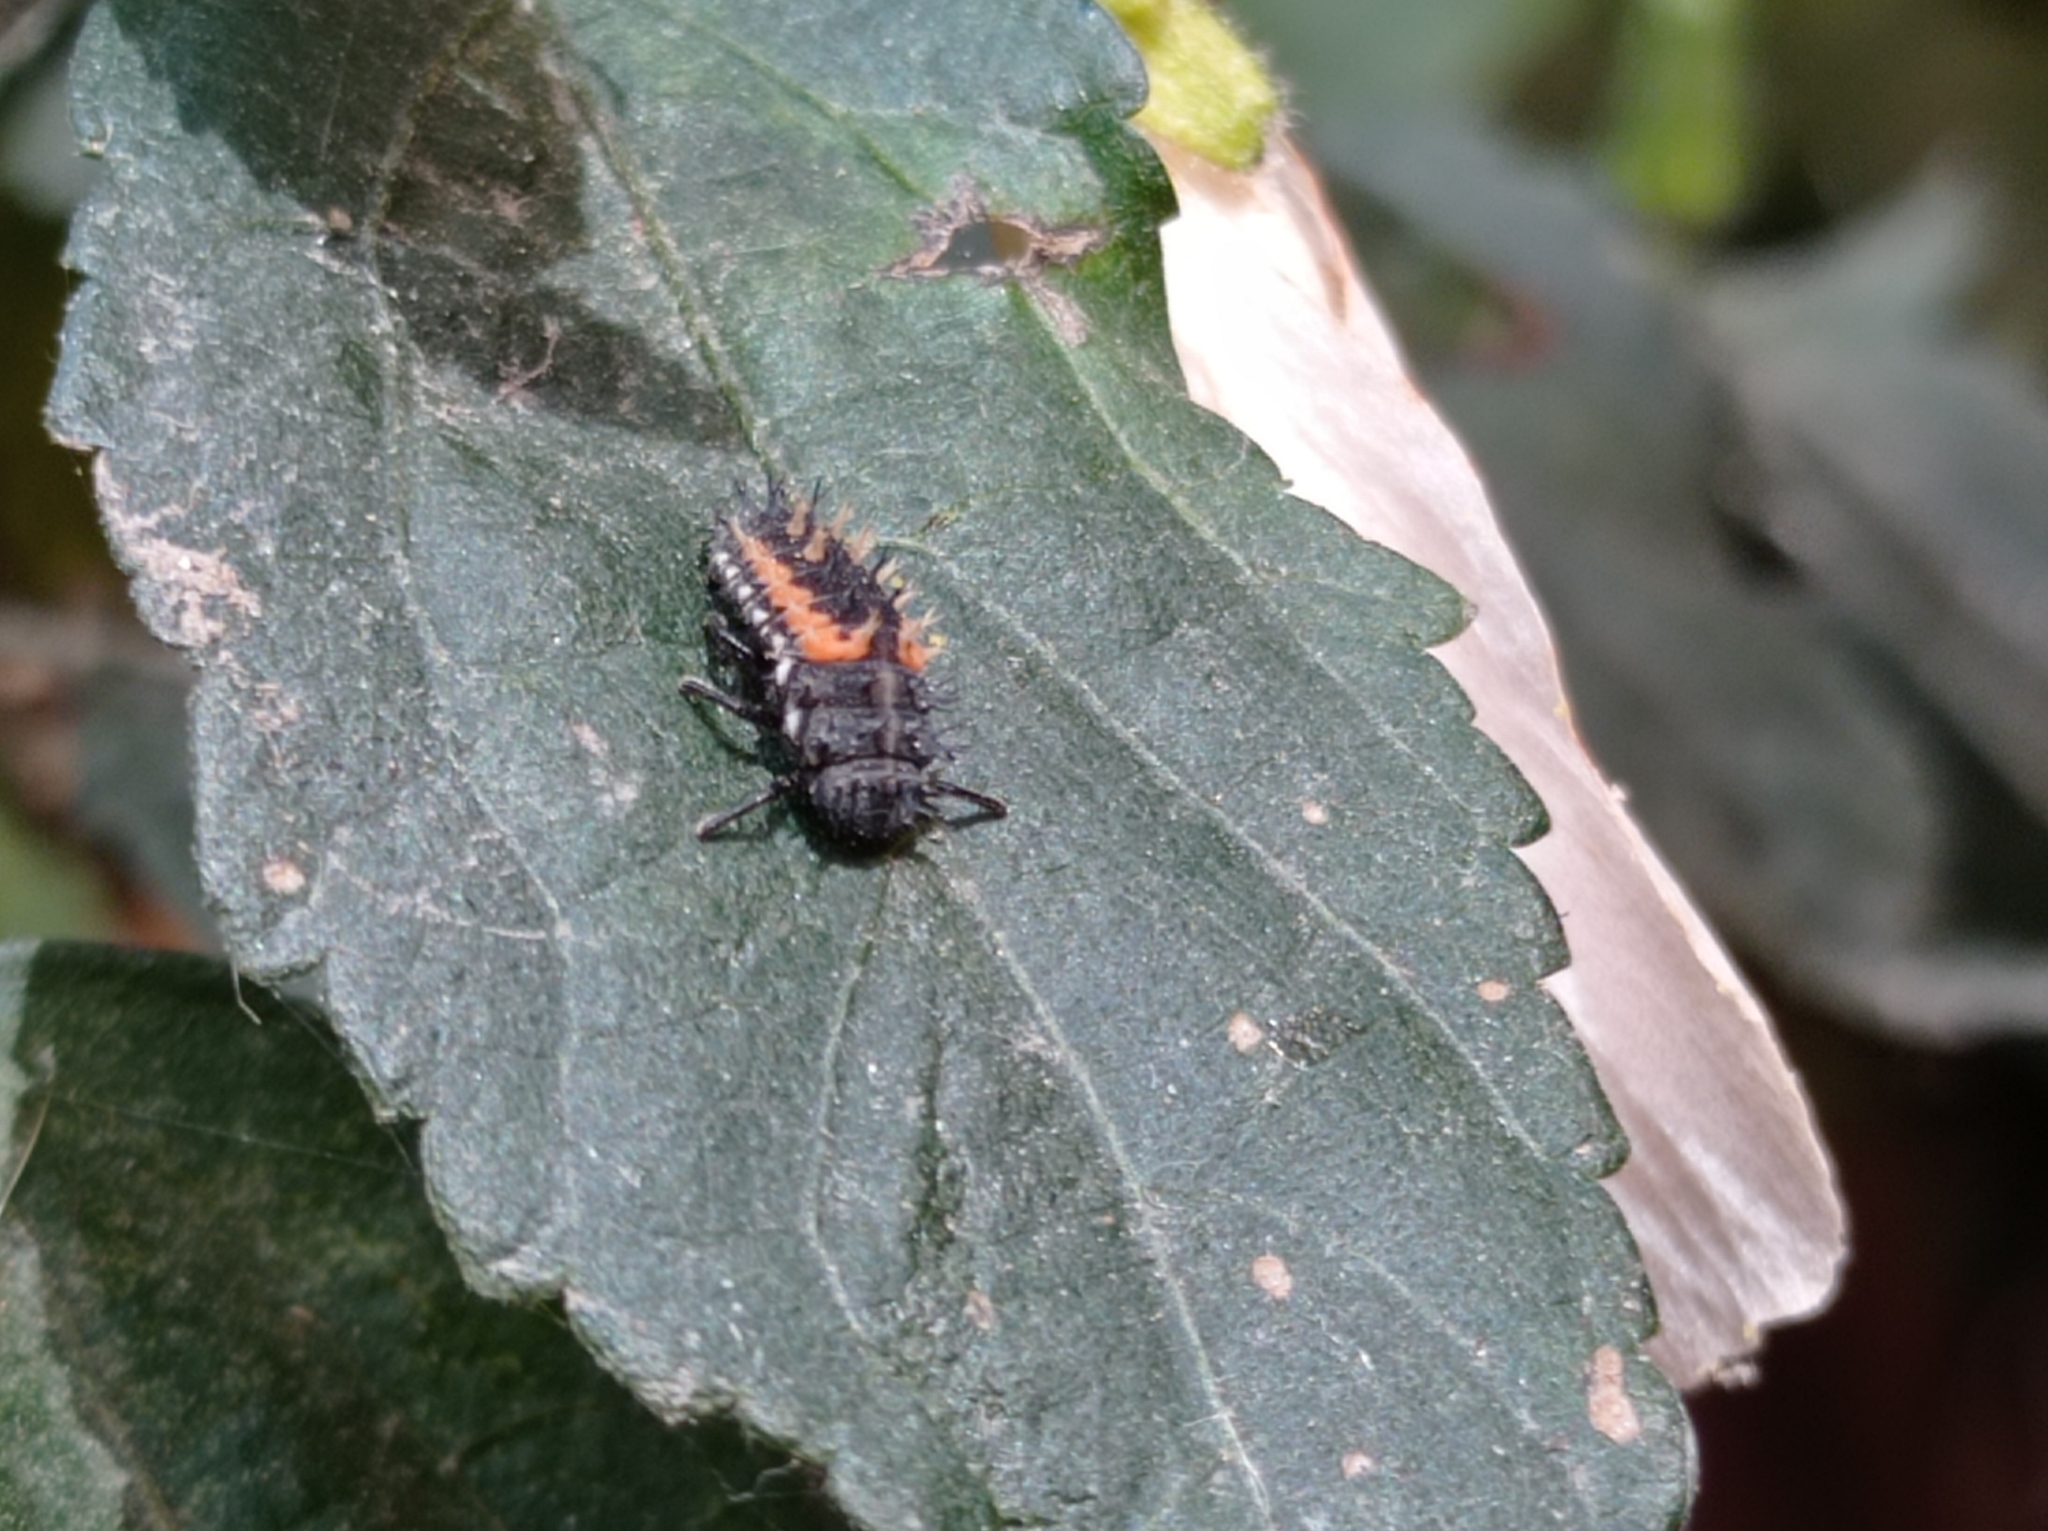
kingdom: Animalia
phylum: Arthropoda
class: Insecta
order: Coleoptera
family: Coccinellidae
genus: Harmonia
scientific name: Harmonia axyridis
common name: Harlequin ladybird
